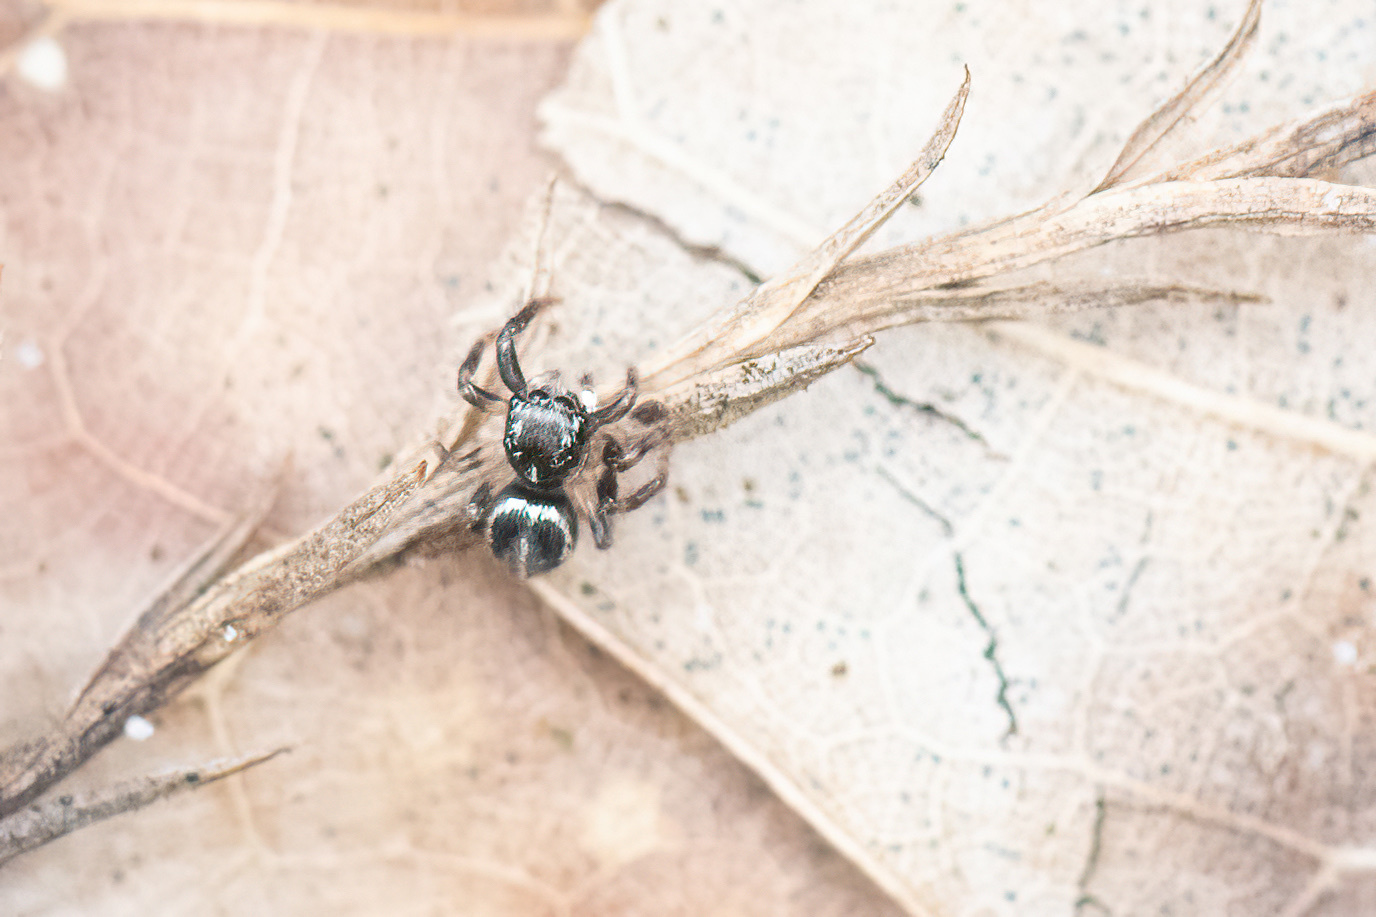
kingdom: Animalia
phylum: Arthropoda
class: Arachnida
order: Araneae
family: Salticidae
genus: Anasaitis
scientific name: Anasaitis canosa
